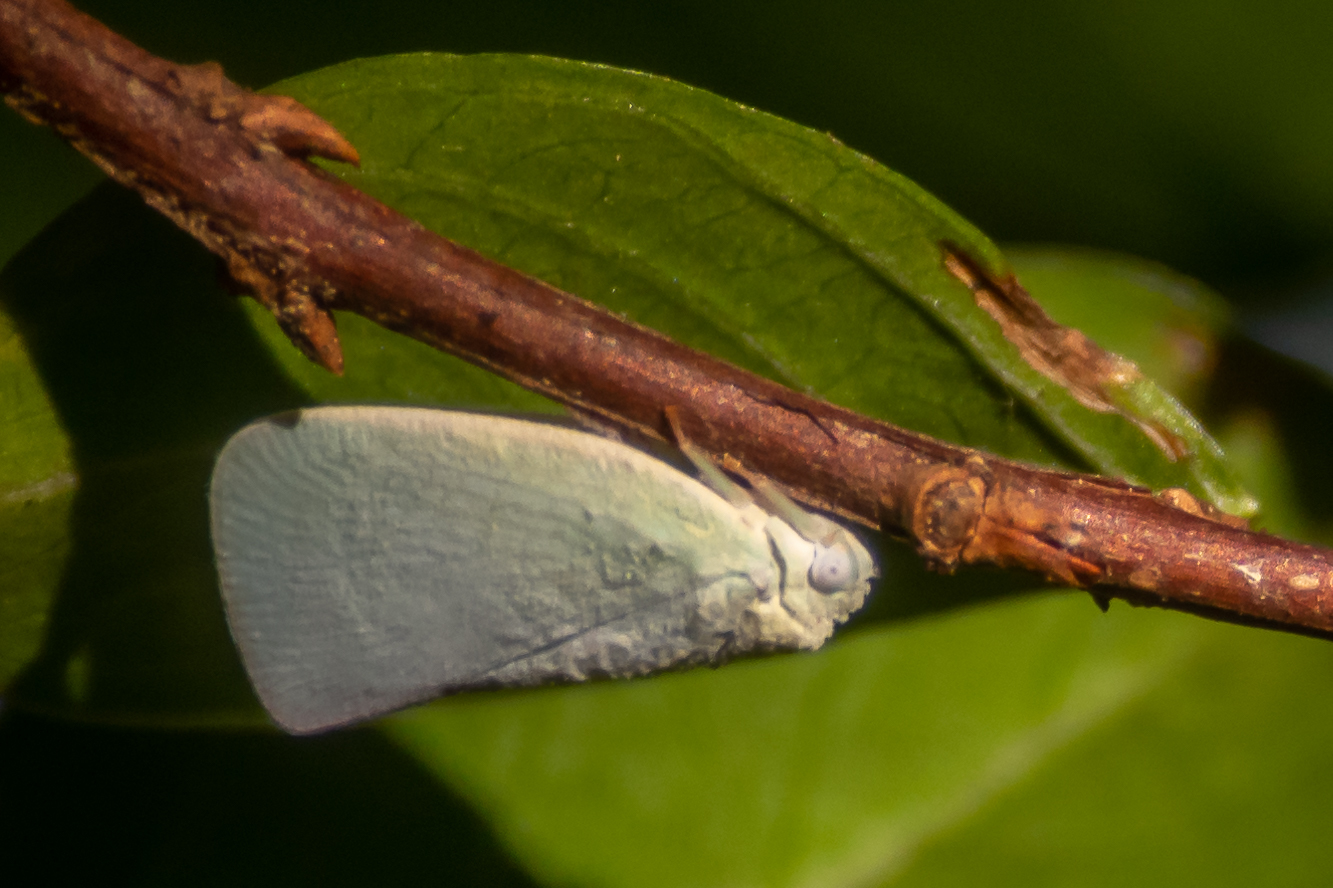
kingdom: Animalia
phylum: Arthropoda
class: Insecta
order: Hemiptera
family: Flatidae
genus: Flatormenis
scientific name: Flatormenis proxima
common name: Northern flatid planthopper
